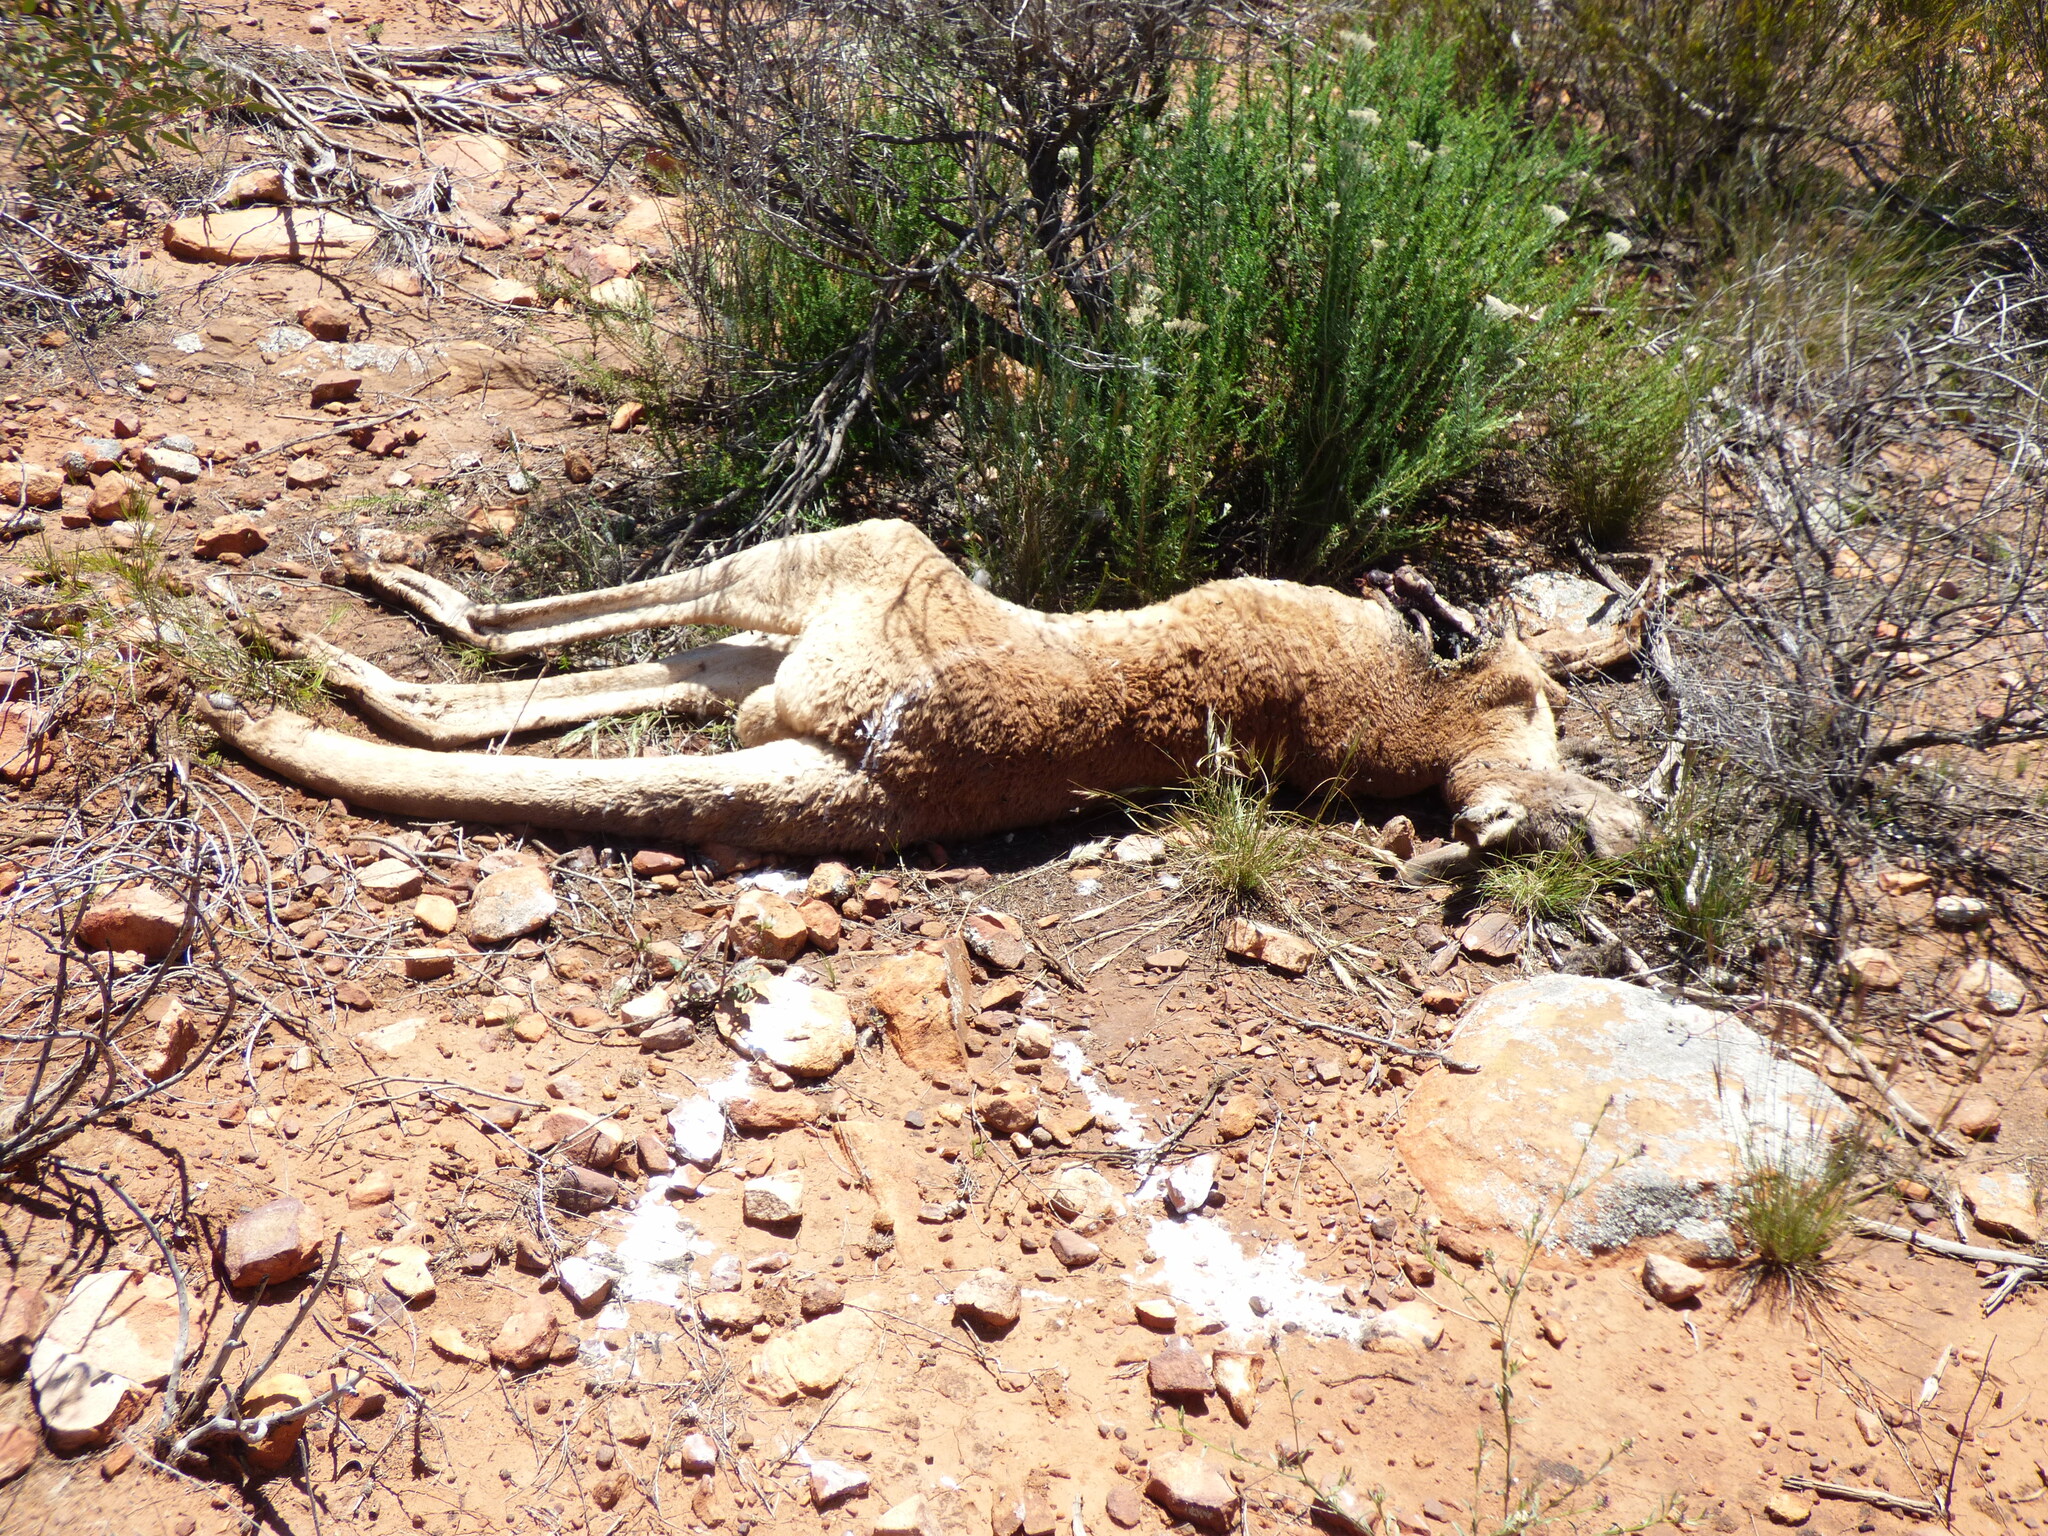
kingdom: Animalia
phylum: Chordata
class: Mammalia
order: Diprotodontia
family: Macropodidae
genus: Macropus
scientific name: Macropus rufus
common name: Red kangaroo
